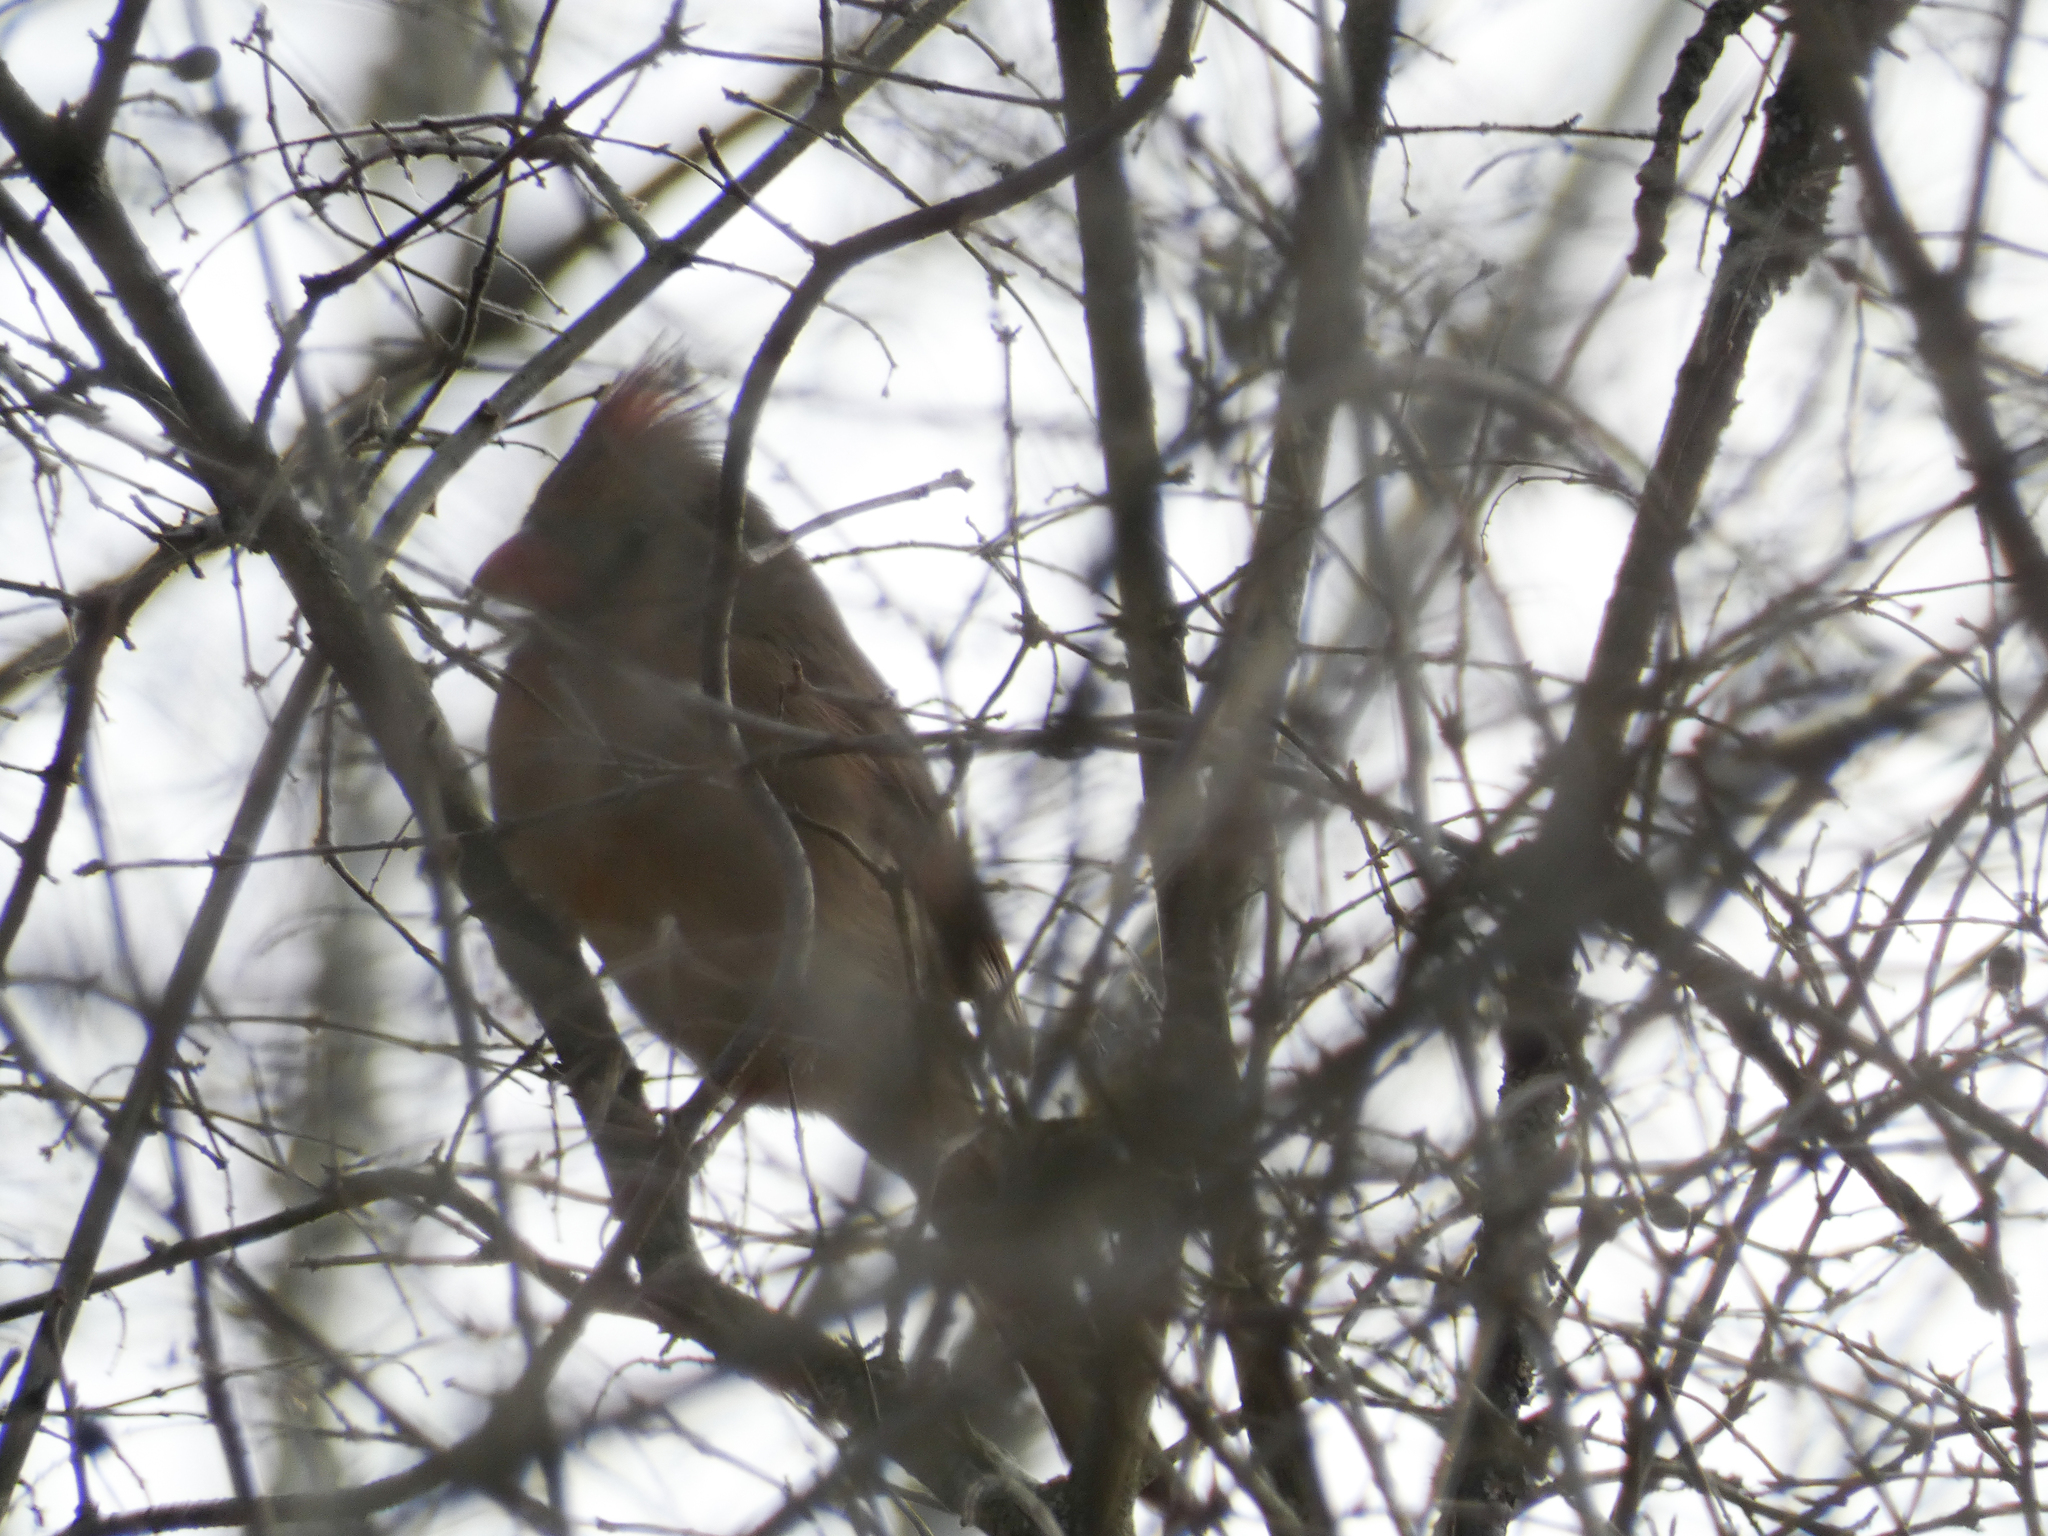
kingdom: Animalia
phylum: Chordata
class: Aves
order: Passeriformes
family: Cardinalidae
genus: Cardinalis
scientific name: Cardinalis cardinalis
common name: Northern cardinal
